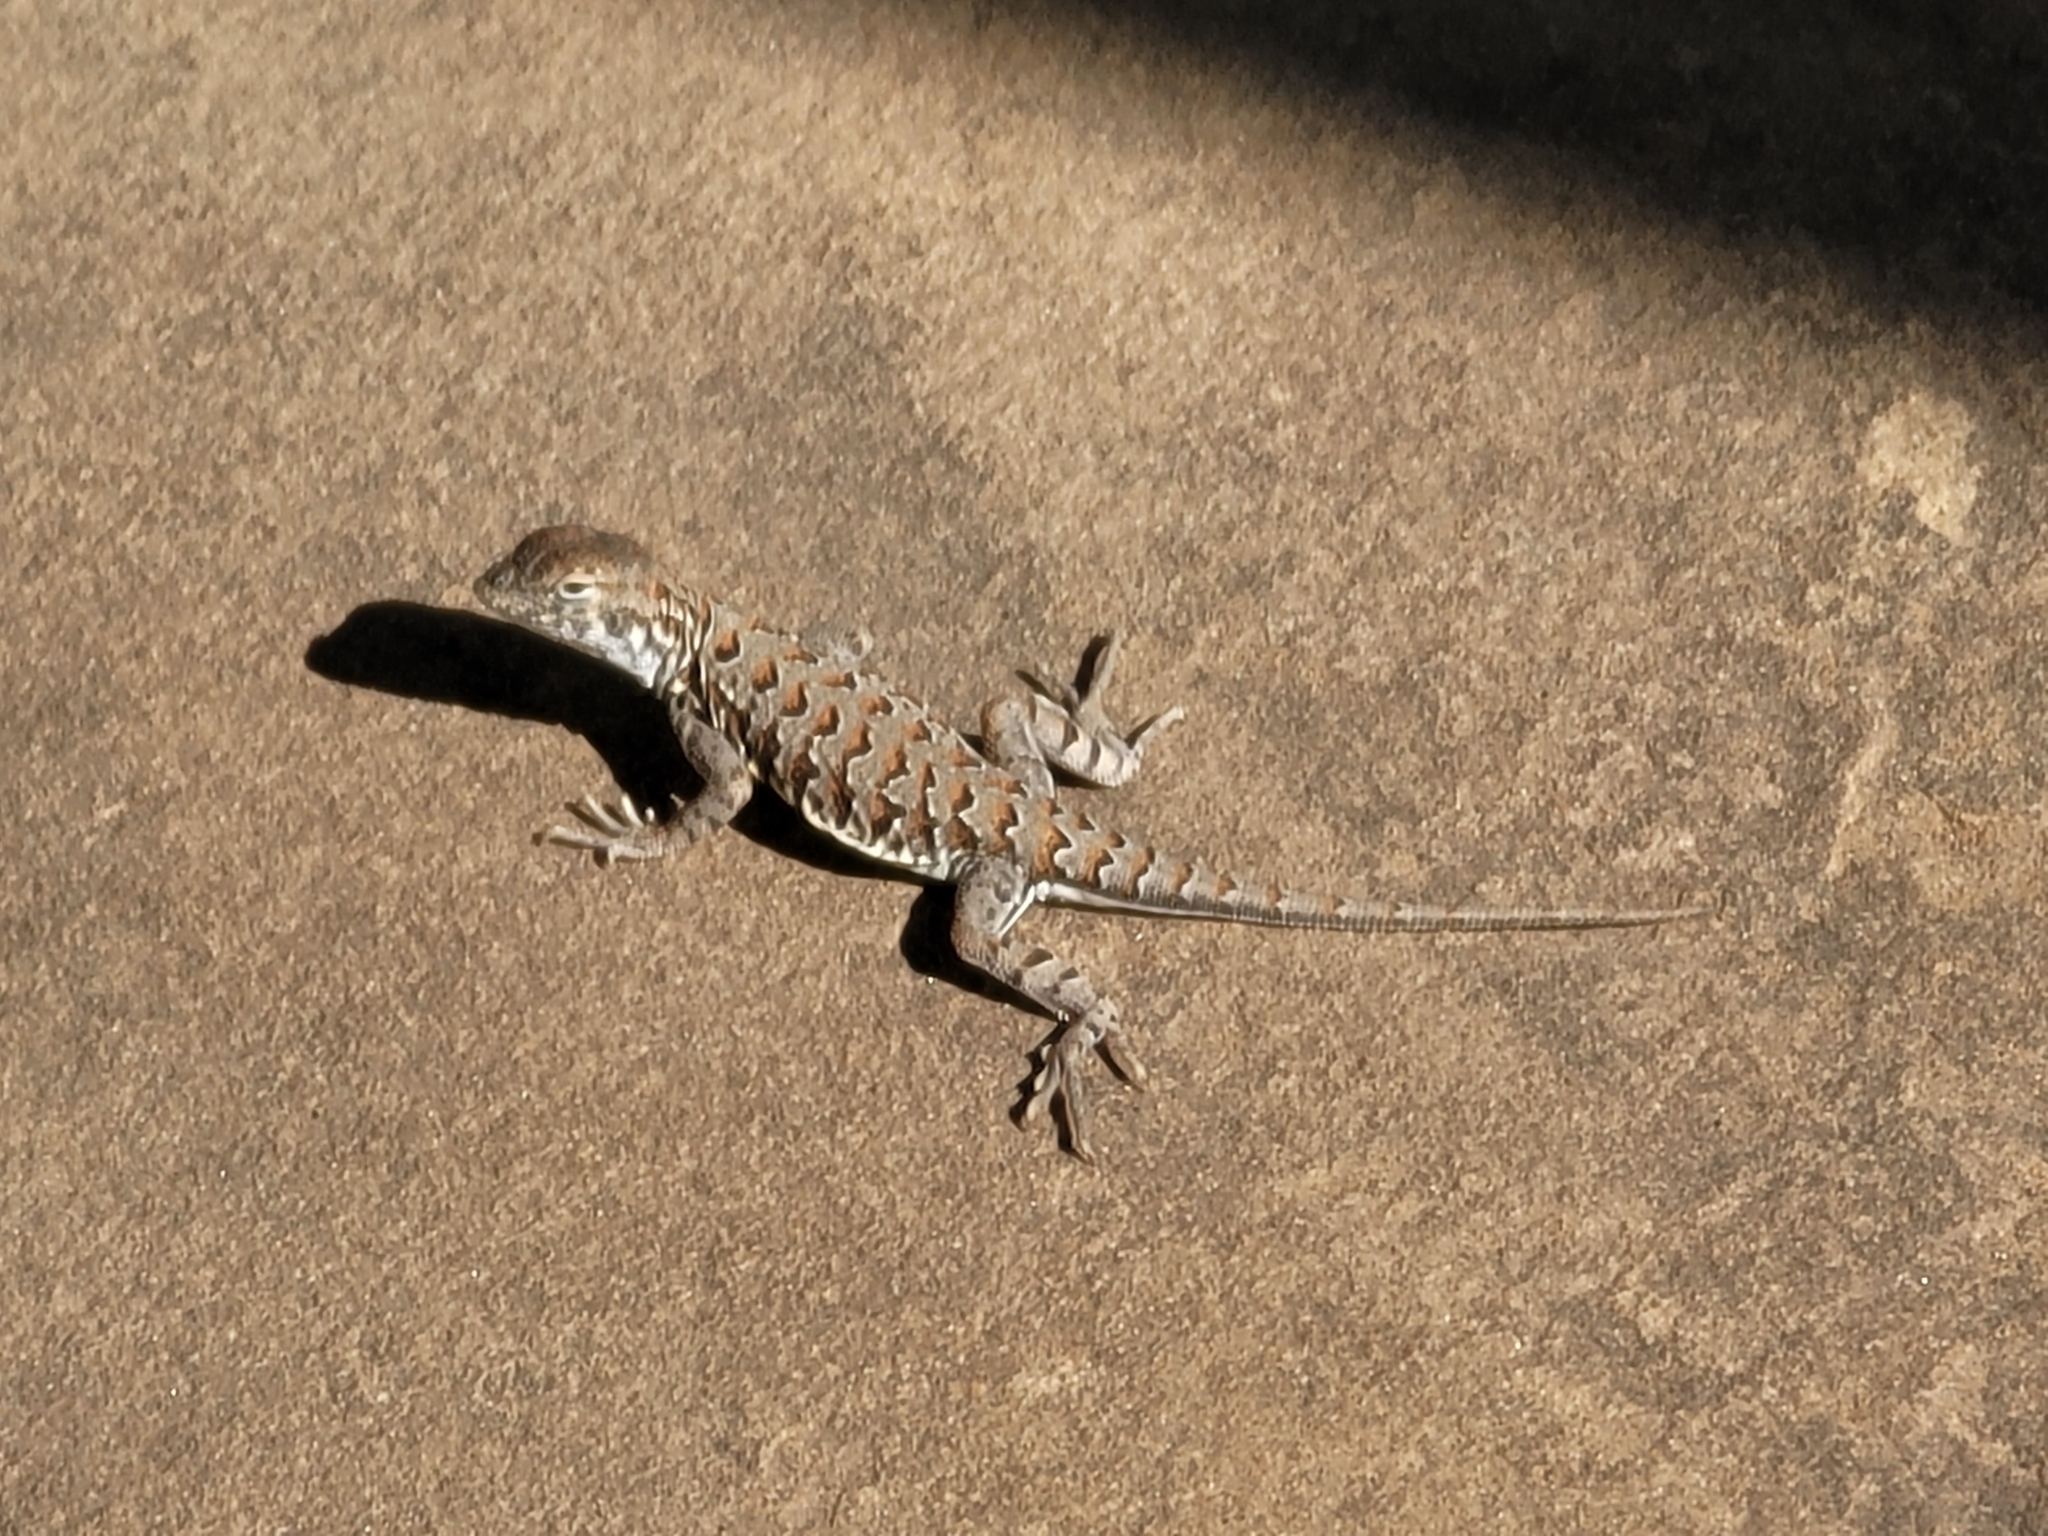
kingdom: Animalia
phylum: Chordata
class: Squamata
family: Phrynosomatidae
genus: Holbrookia
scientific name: Holbrookia elegans
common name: Elegant earless lizard
